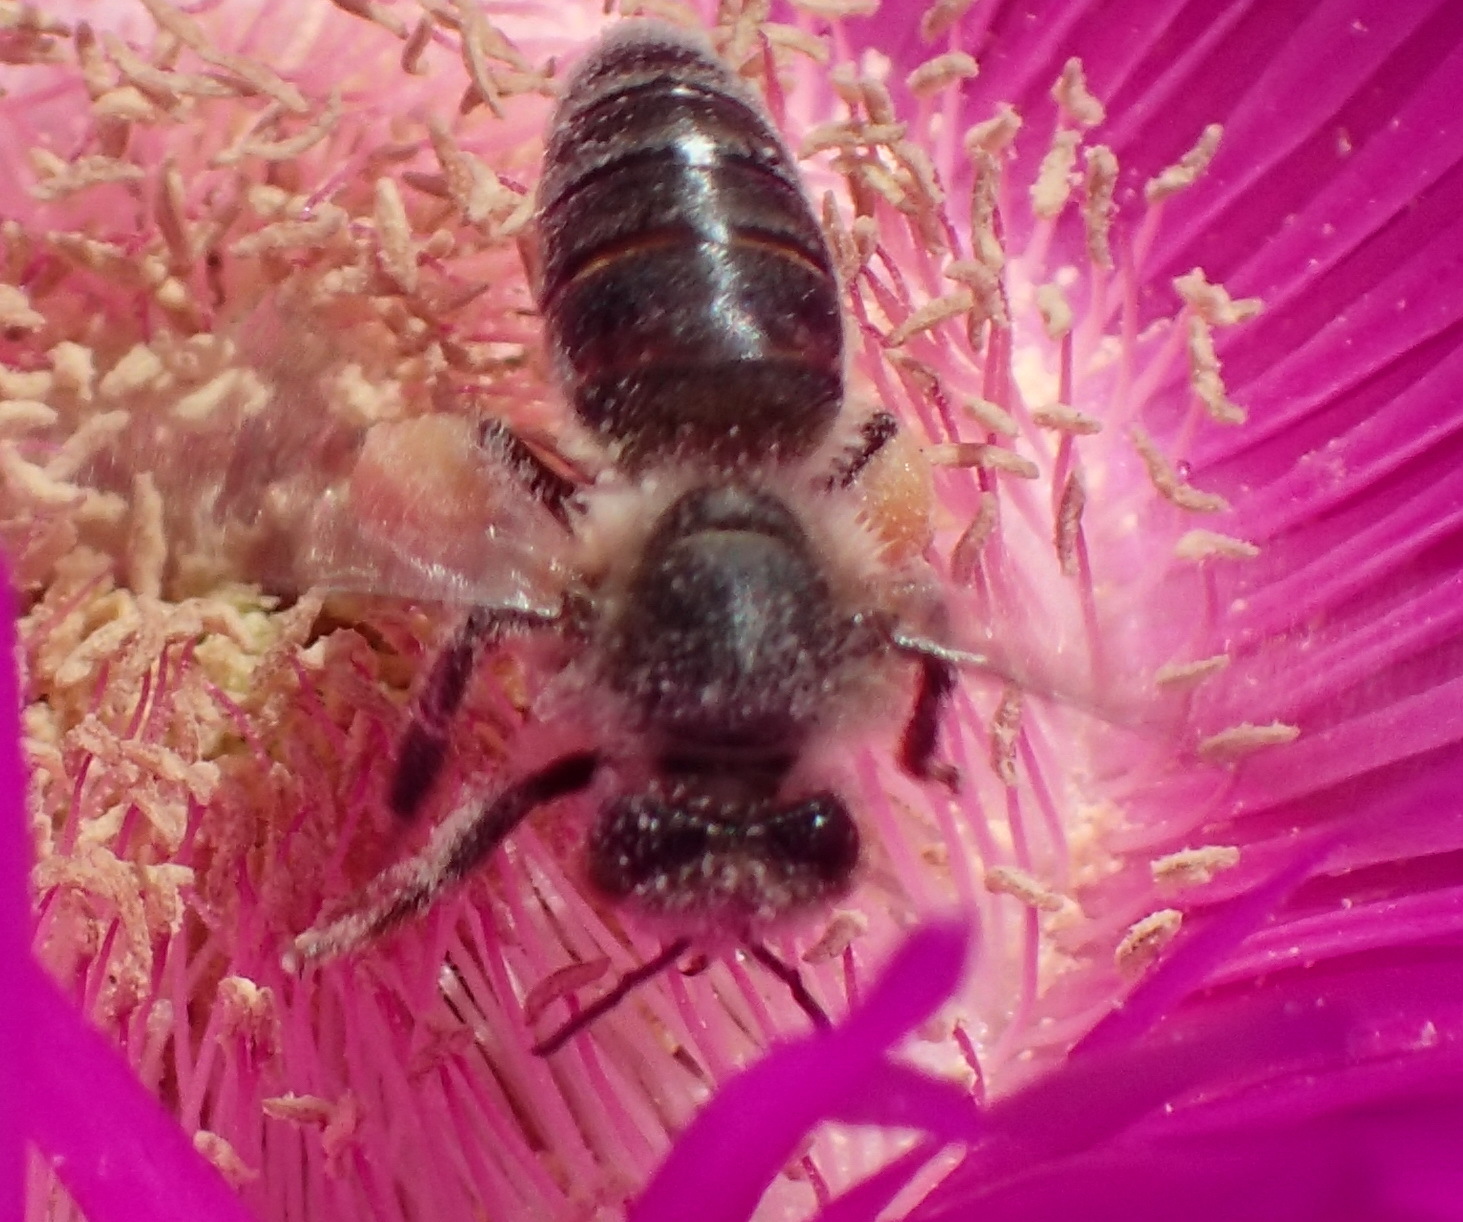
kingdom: Animalia
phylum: Arthropoda
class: Insecta
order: Hymenoptera
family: Apidae
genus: Apis
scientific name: Apis mellifera
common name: Honey bee
